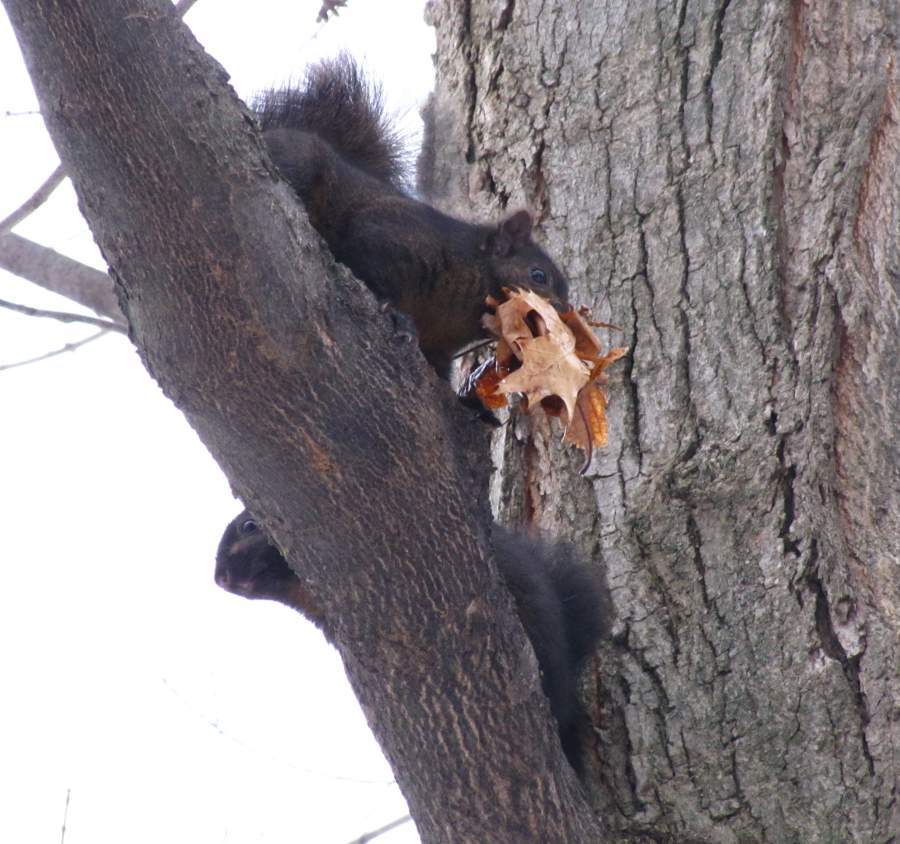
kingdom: Animalia
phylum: Chordata
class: Mammalia
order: Rodentia
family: Sciuridae
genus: Sciurus
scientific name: Sciurus carolinensis
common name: Eastern gray squirrel
